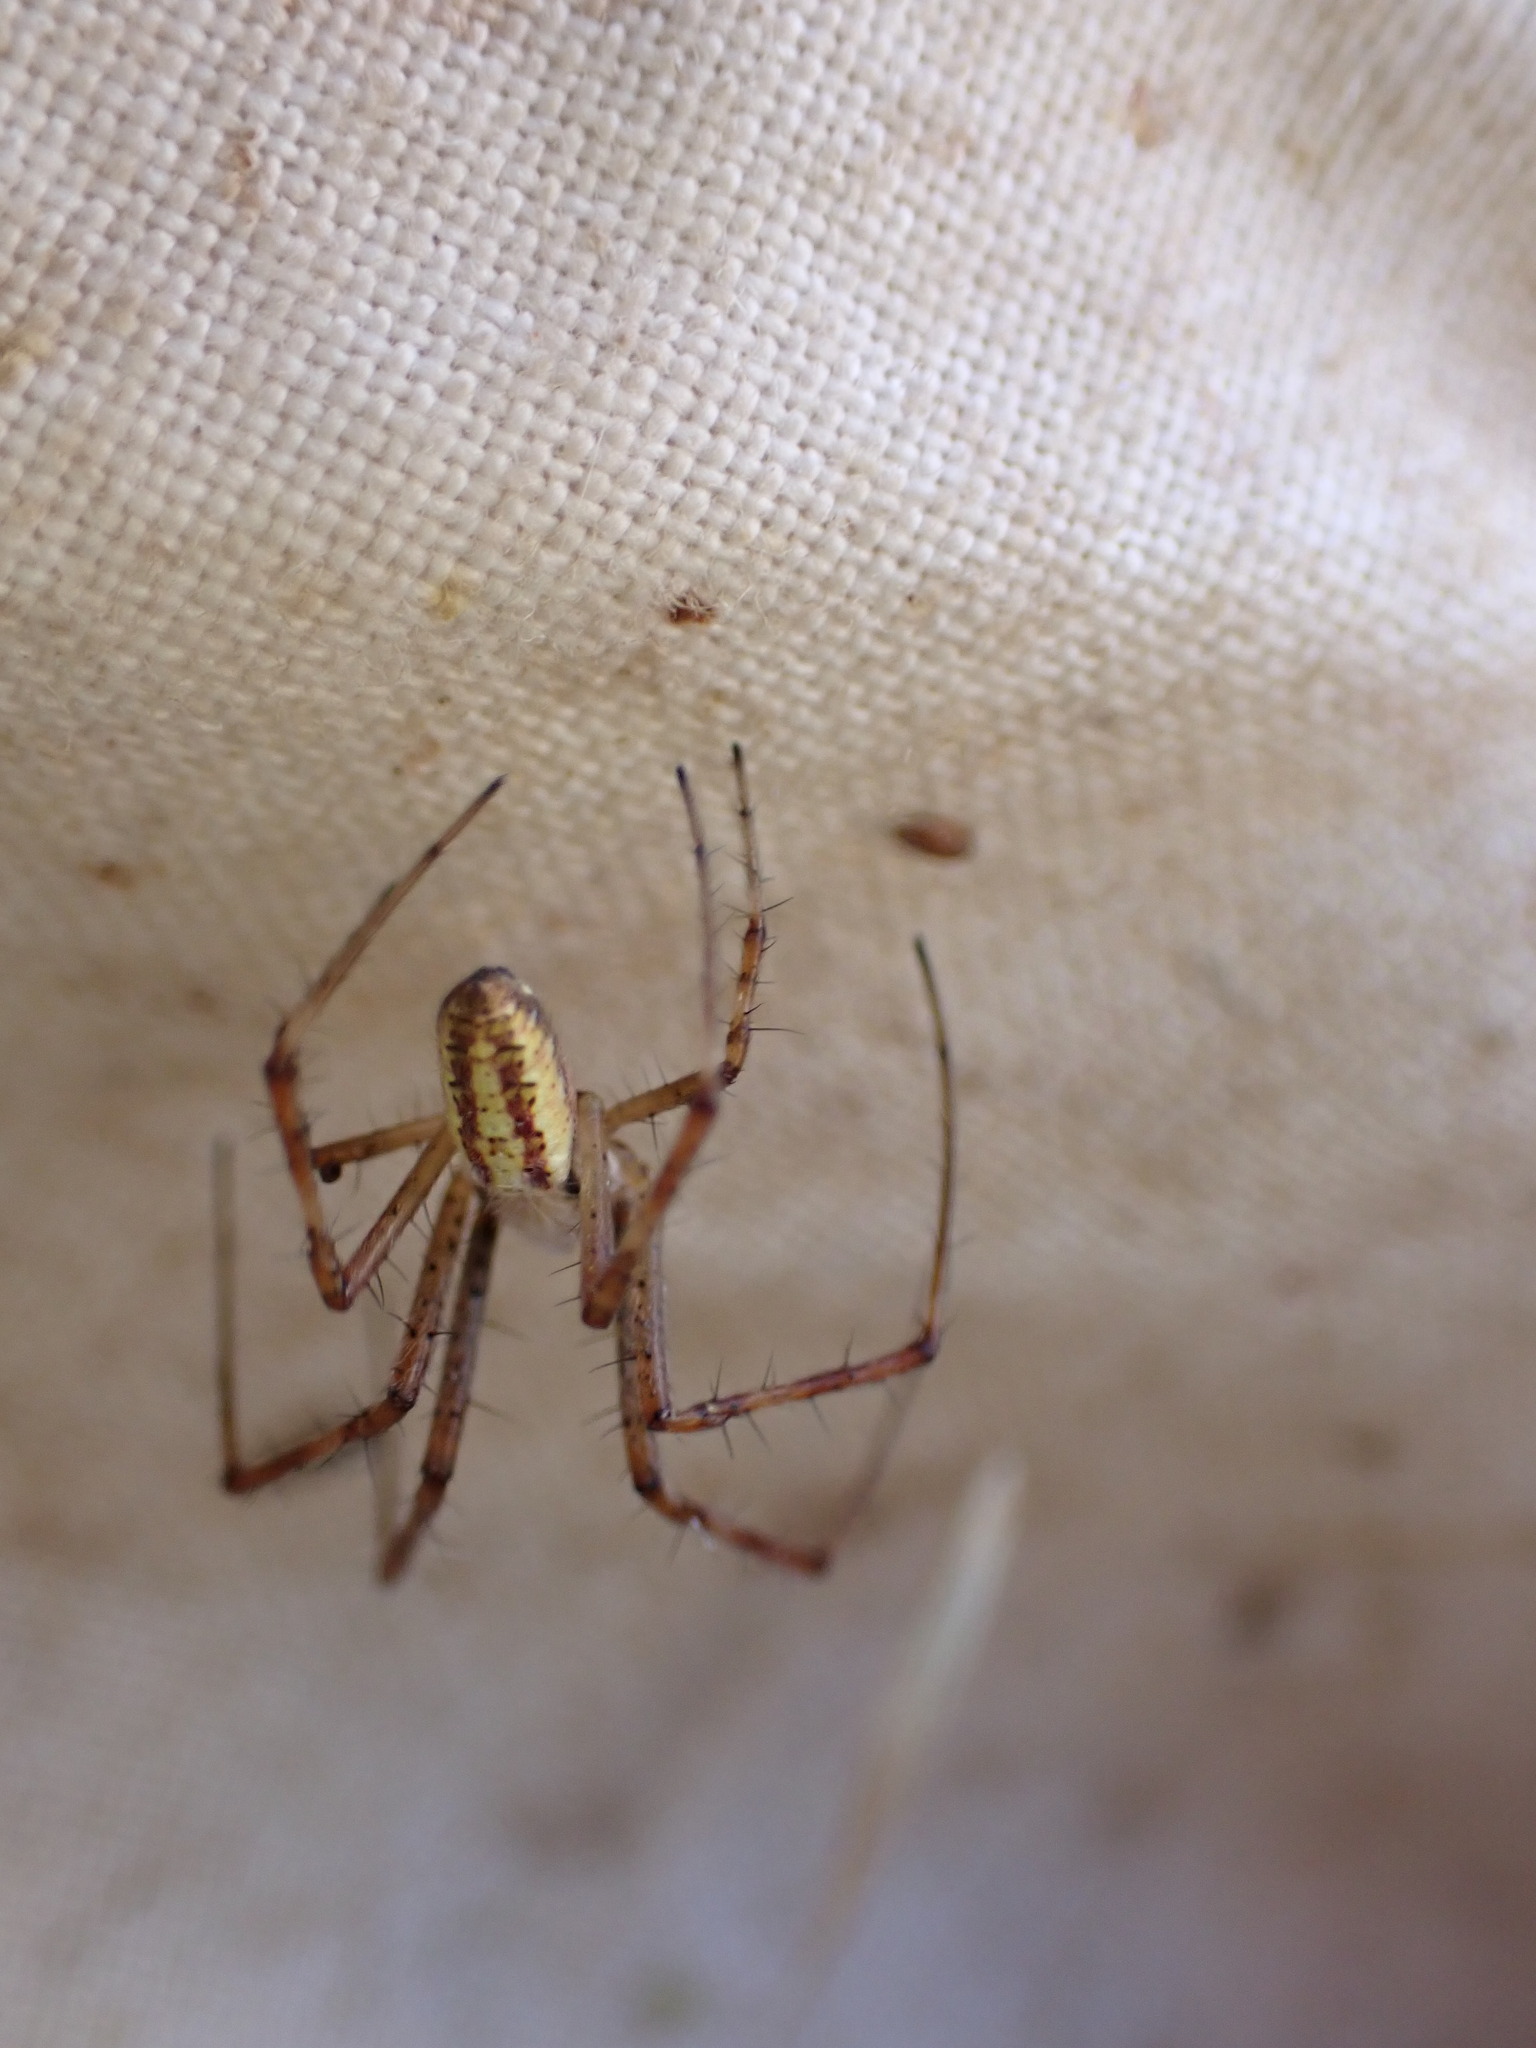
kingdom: Animalia
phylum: Arthropoda
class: Arachnida
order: Araneae
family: Araneidae
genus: Argiope
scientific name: Argiope bruennichi
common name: Wasp spider
